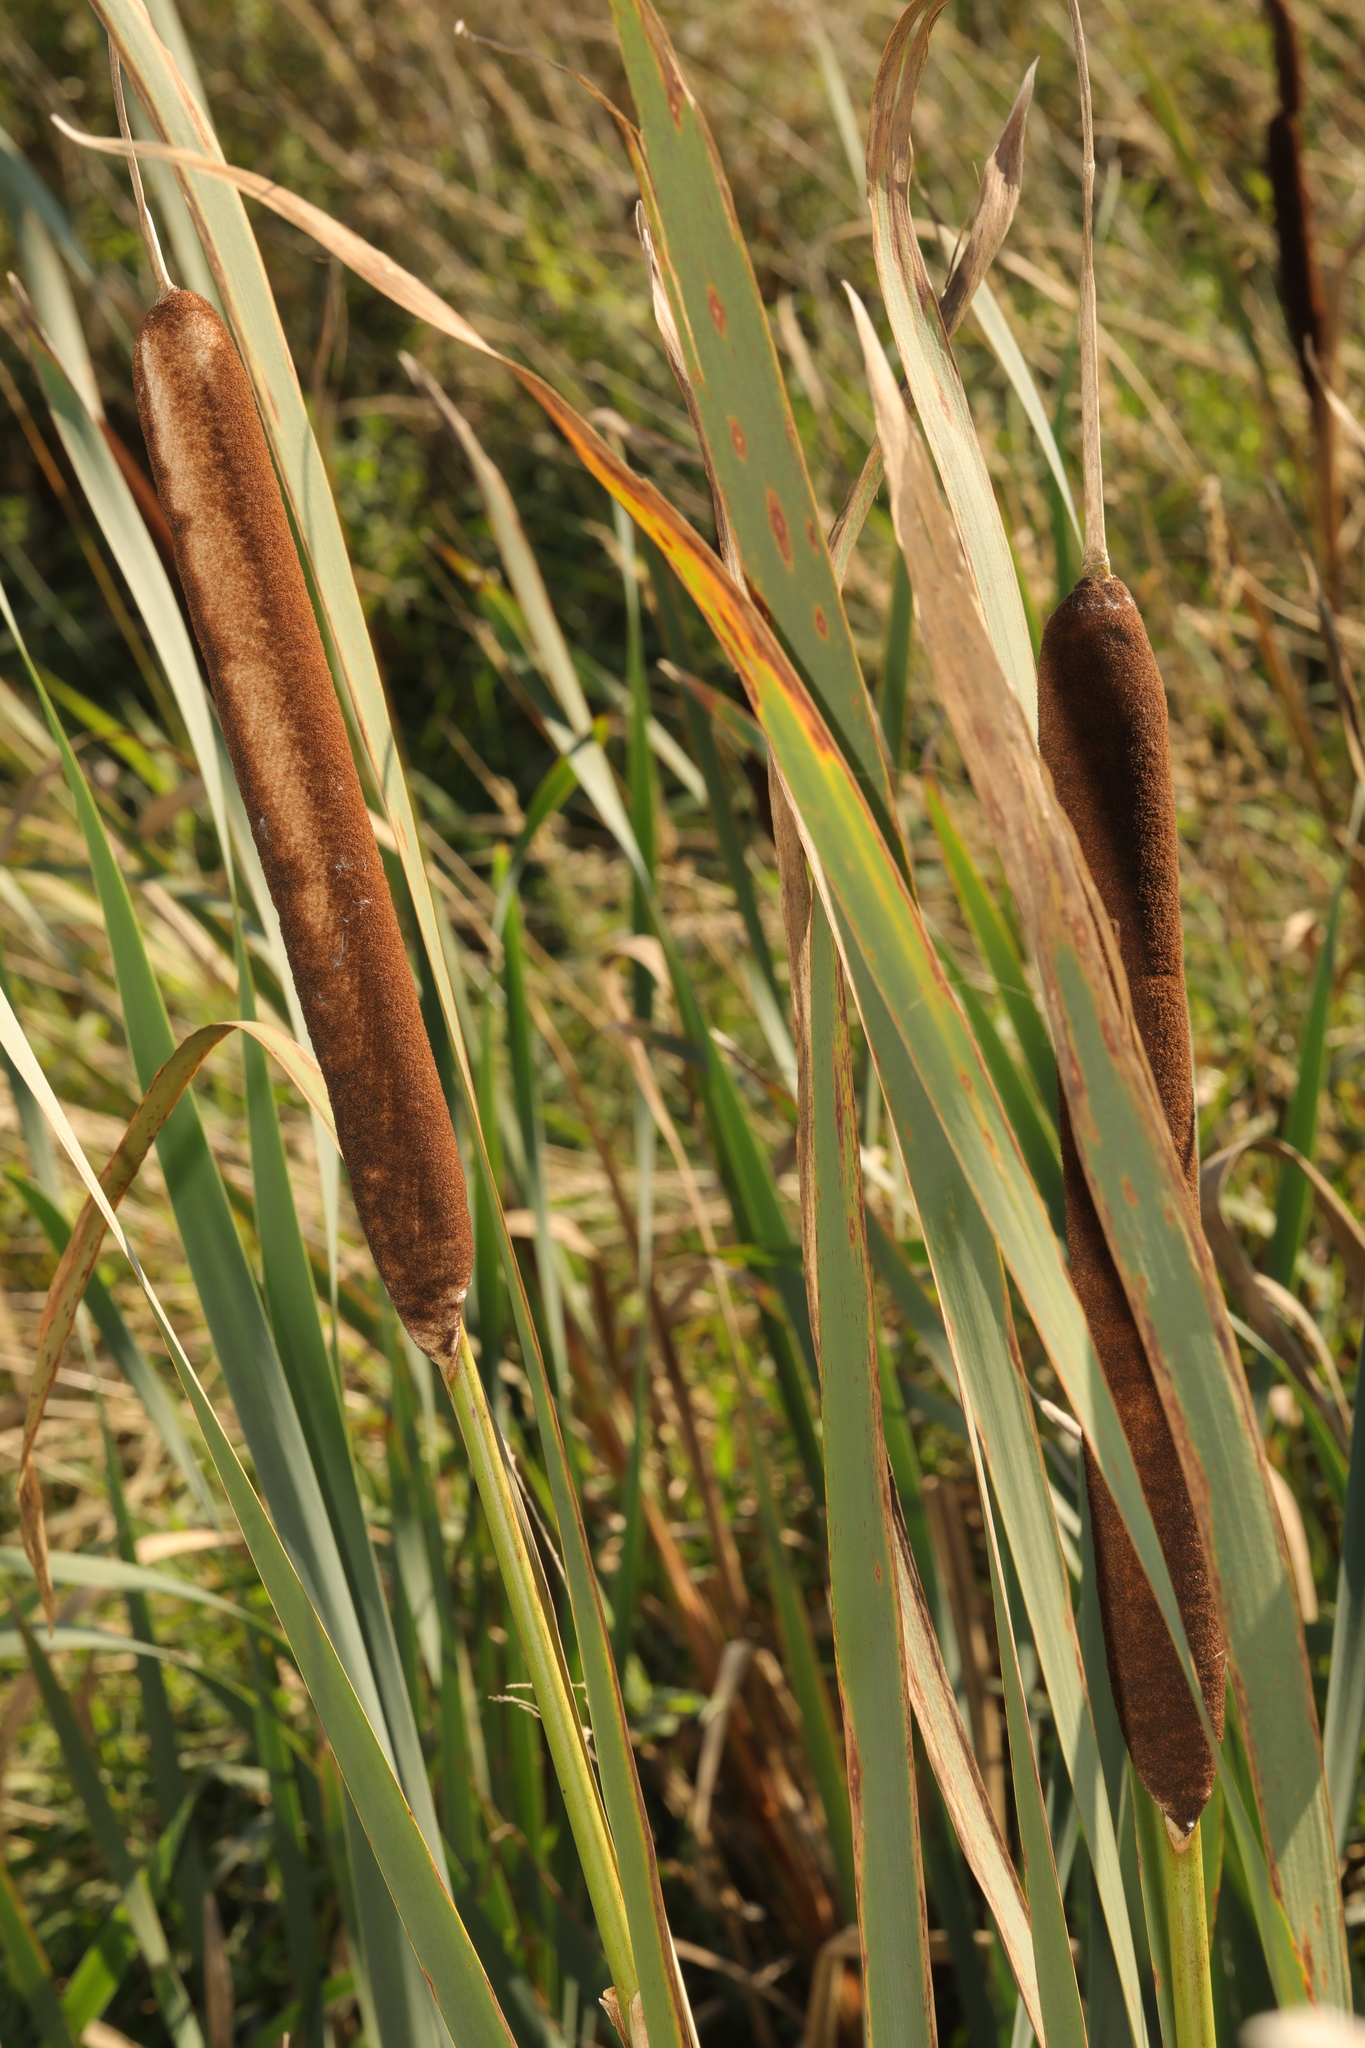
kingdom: Plantae
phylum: Tracheophyta
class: Liliopsida
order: Poales
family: Typhaceae
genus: Typha
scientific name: Typha latifolia
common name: Broadleaf cattail
